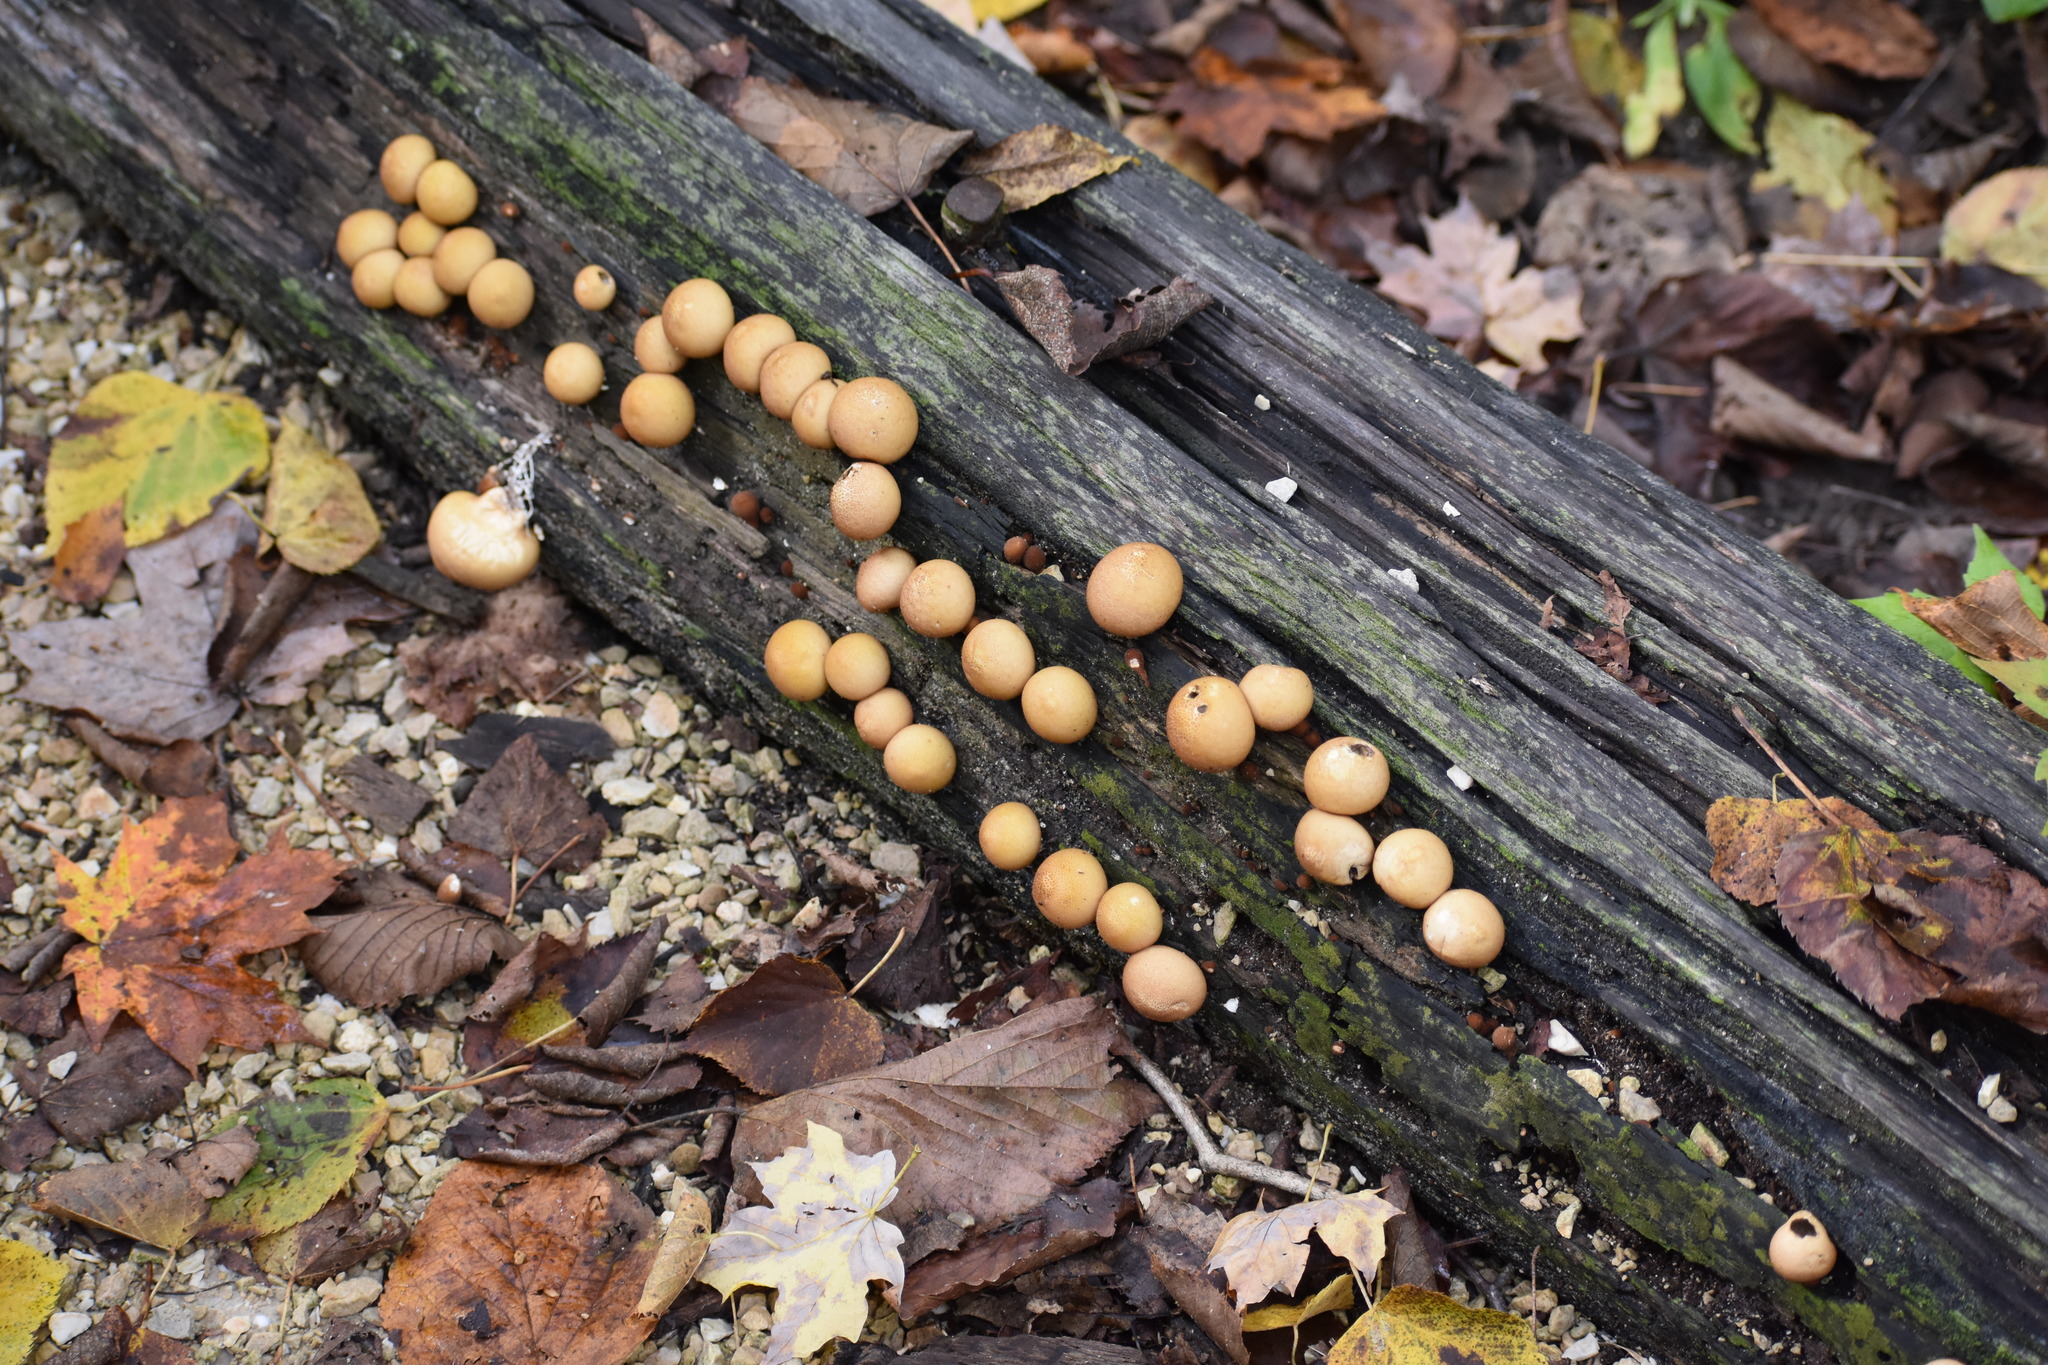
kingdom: Fungi
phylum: Basidiomycota
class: Agaricomycetes
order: Agaricales
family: Lycoperdaceae
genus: Apioperdon
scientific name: Apioperdon pyriforme
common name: Pear-shaped puffball
